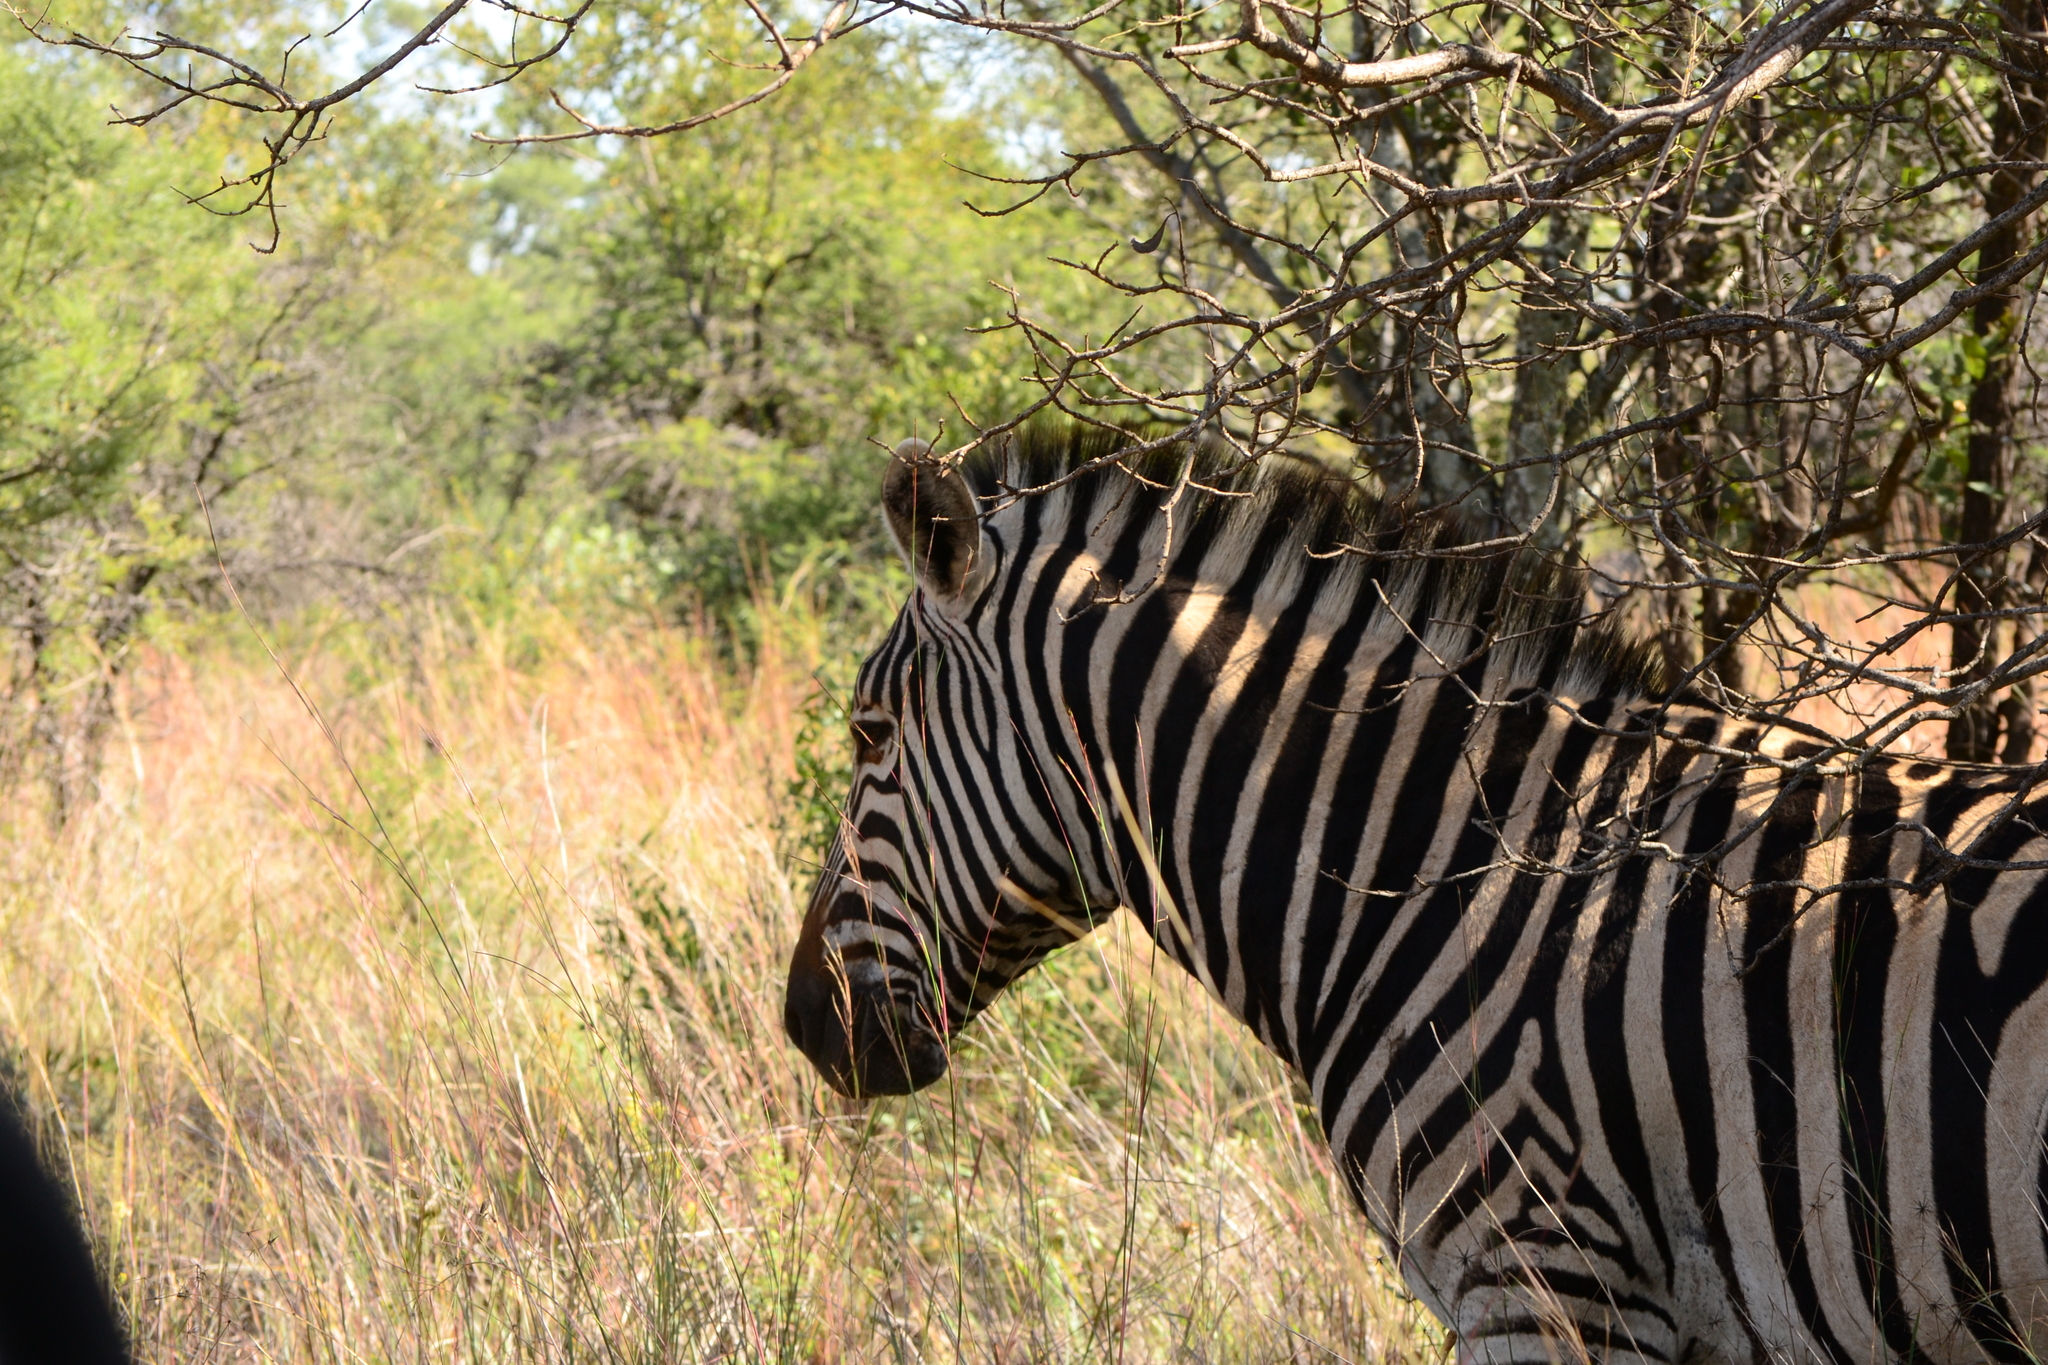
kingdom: Animalia
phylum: Chordata
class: Mammalia
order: Perissodactyla
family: Equidae
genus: Equus
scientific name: Equus quagga
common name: Plains zebra
